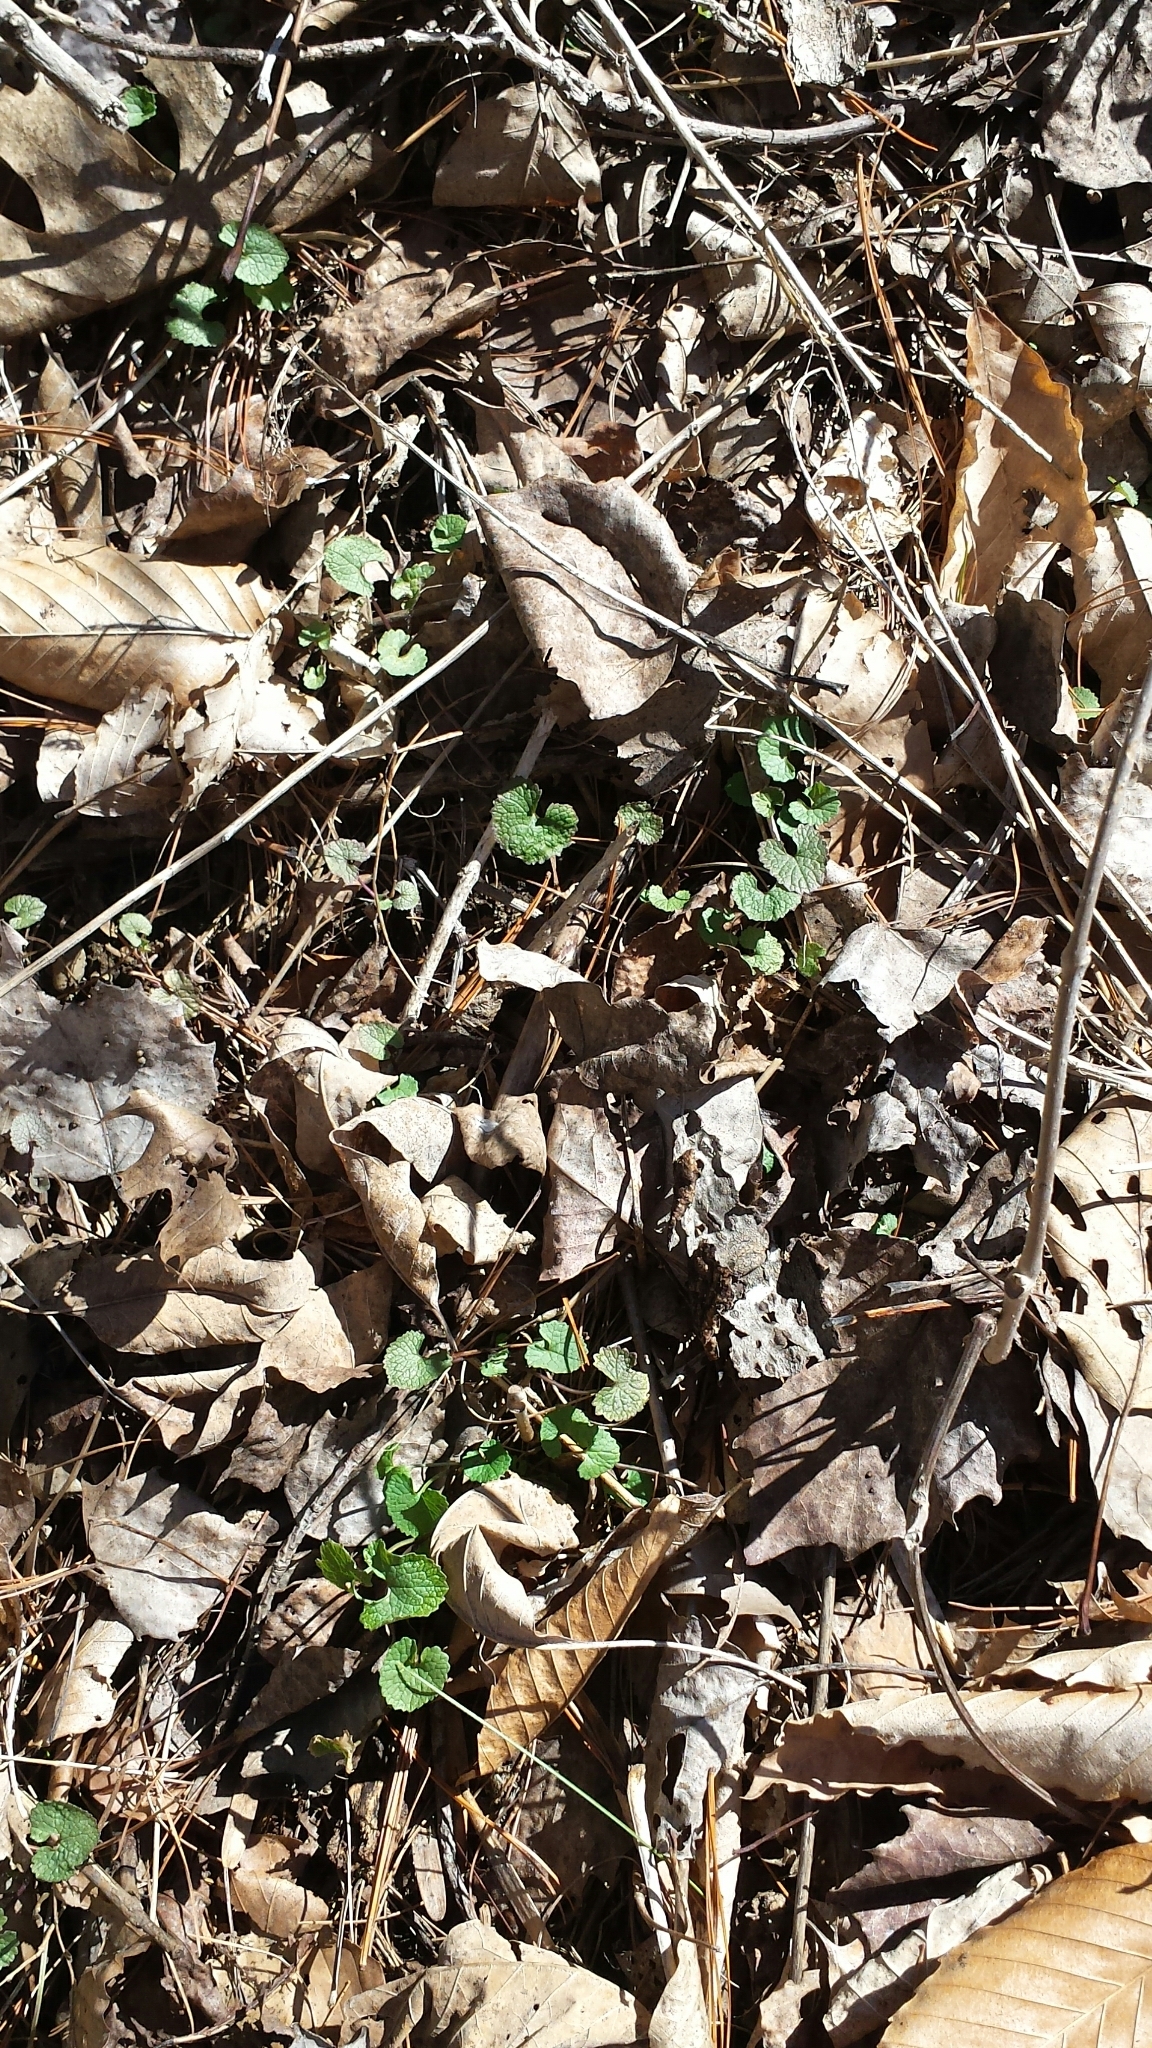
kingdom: Plantae
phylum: Tracheophyta
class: Magnoliopsida
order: Brassicales
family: Brassicaceae
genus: Alliaria
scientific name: Alliaria petiolata
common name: Garlic mustard
